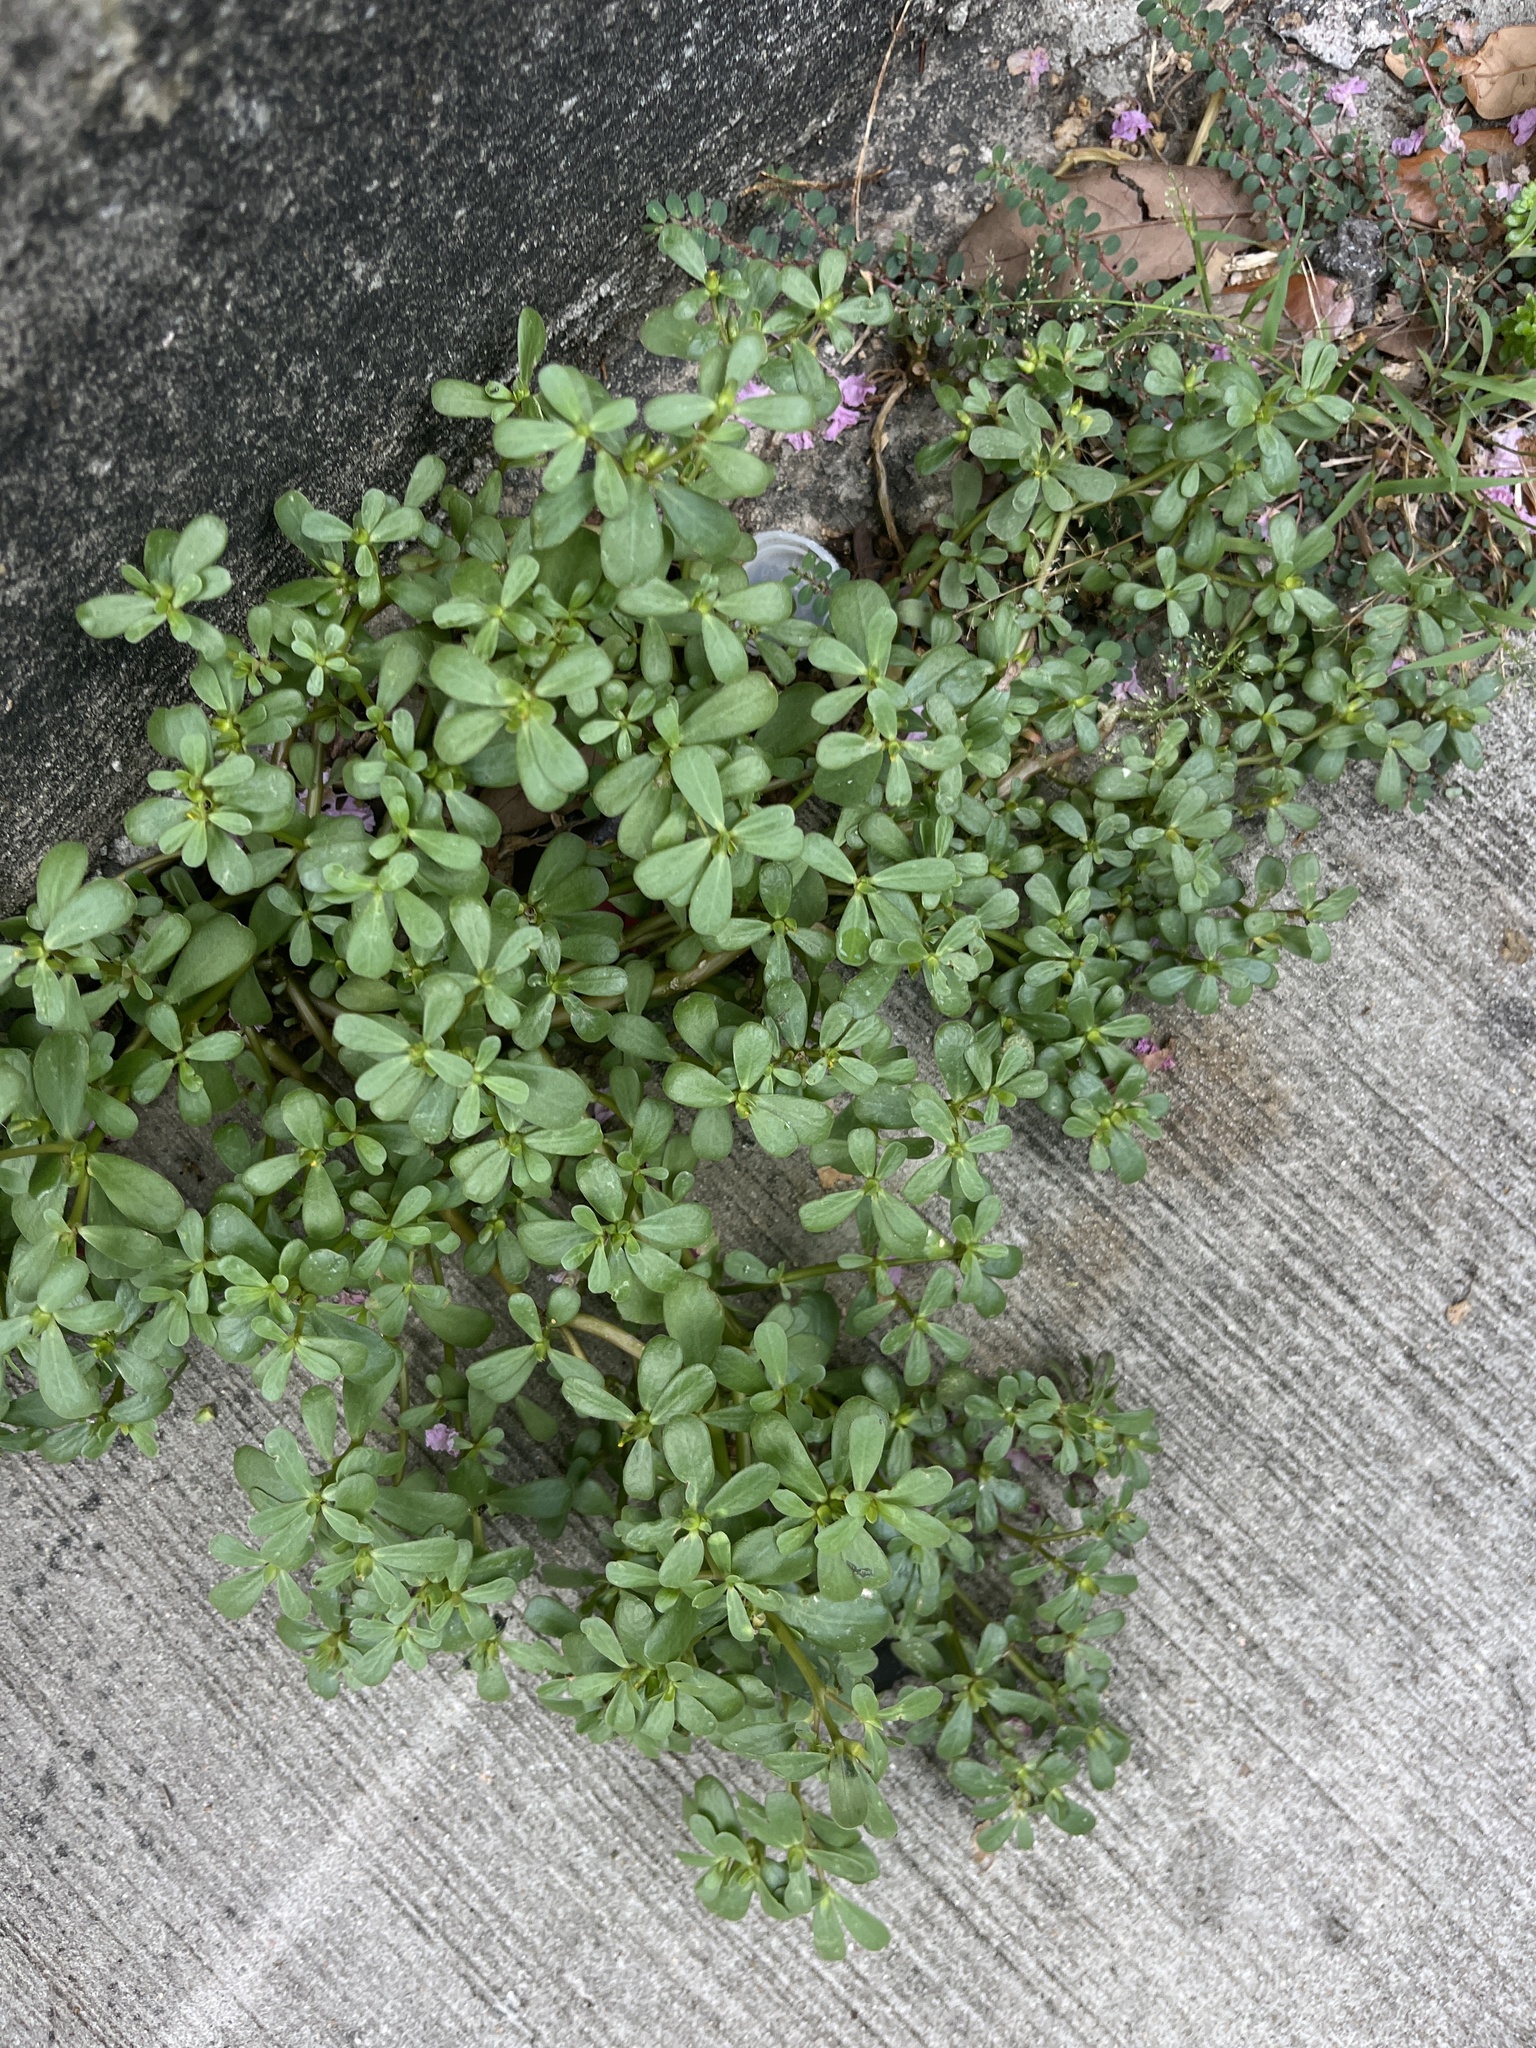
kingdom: Plantae
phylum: Tracheophyta
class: Magnoliopsida
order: Caryophyllales
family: Portulacaceae
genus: Portulaca
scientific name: Portulaca oleracea
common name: Common purslane
